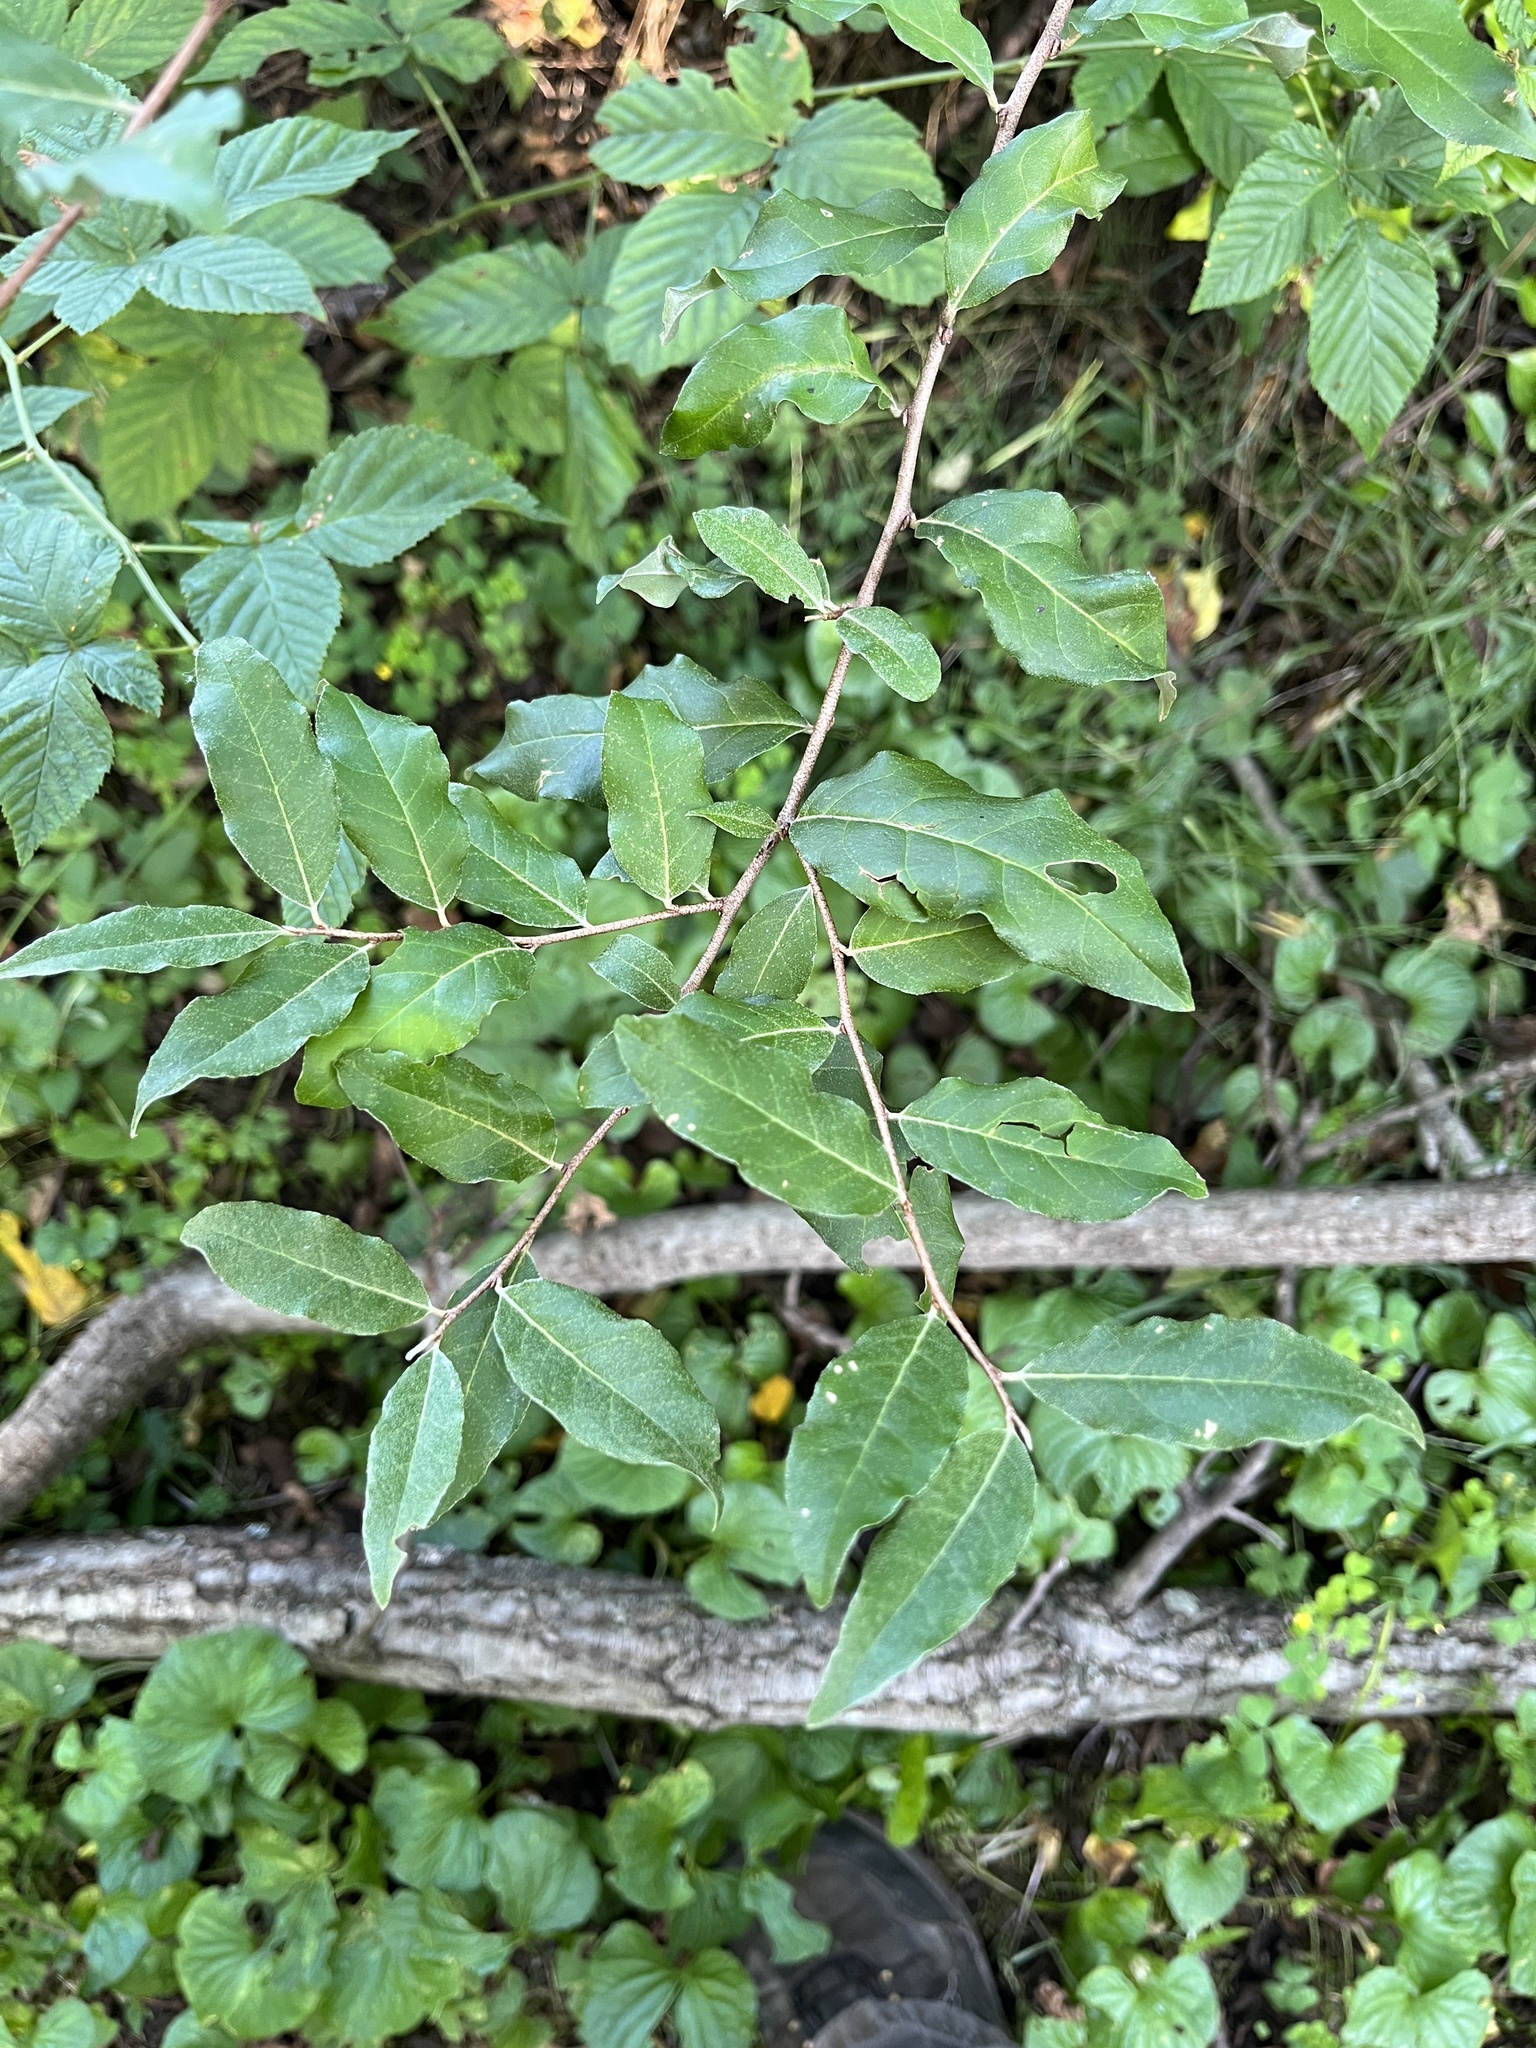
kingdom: Plantae
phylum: Tracheophyta
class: Magnoliopsida
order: Rosales
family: Elaeagnaceae
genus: Elaeagnus
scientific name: Elaeagnus umbellata
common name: Autumn olive
